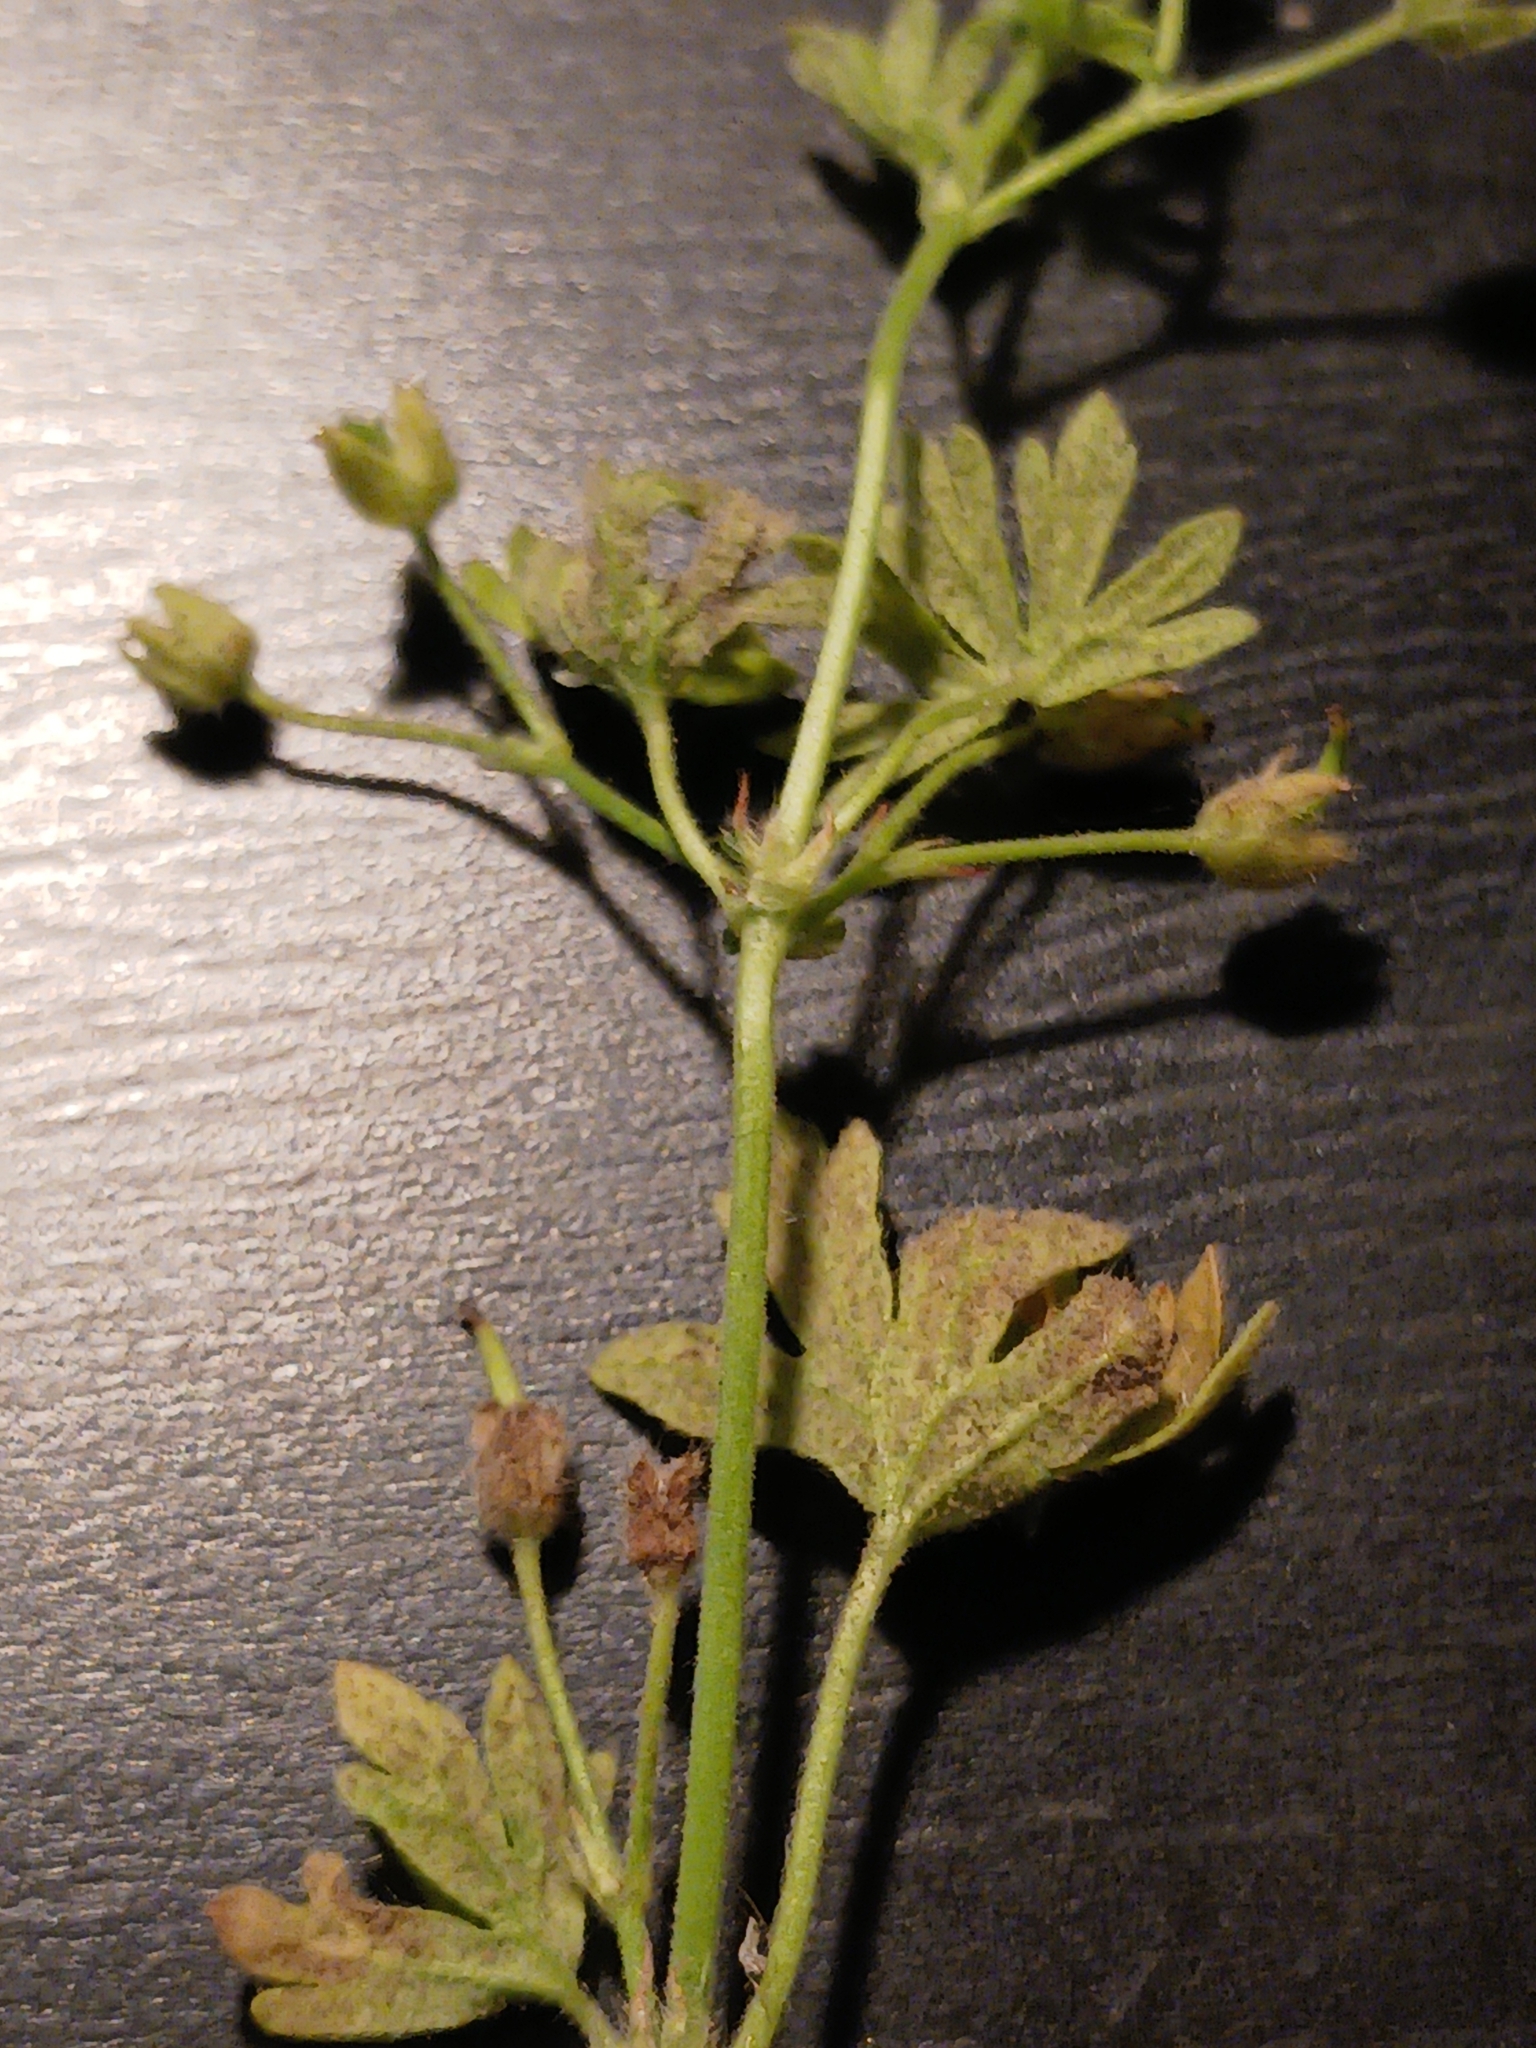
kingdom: Chromista
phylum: Oomycota
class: Peronosporea
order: Peronosporales
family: Peronosporaceae
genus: Peronospora
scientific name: Peronospora conglomerata
